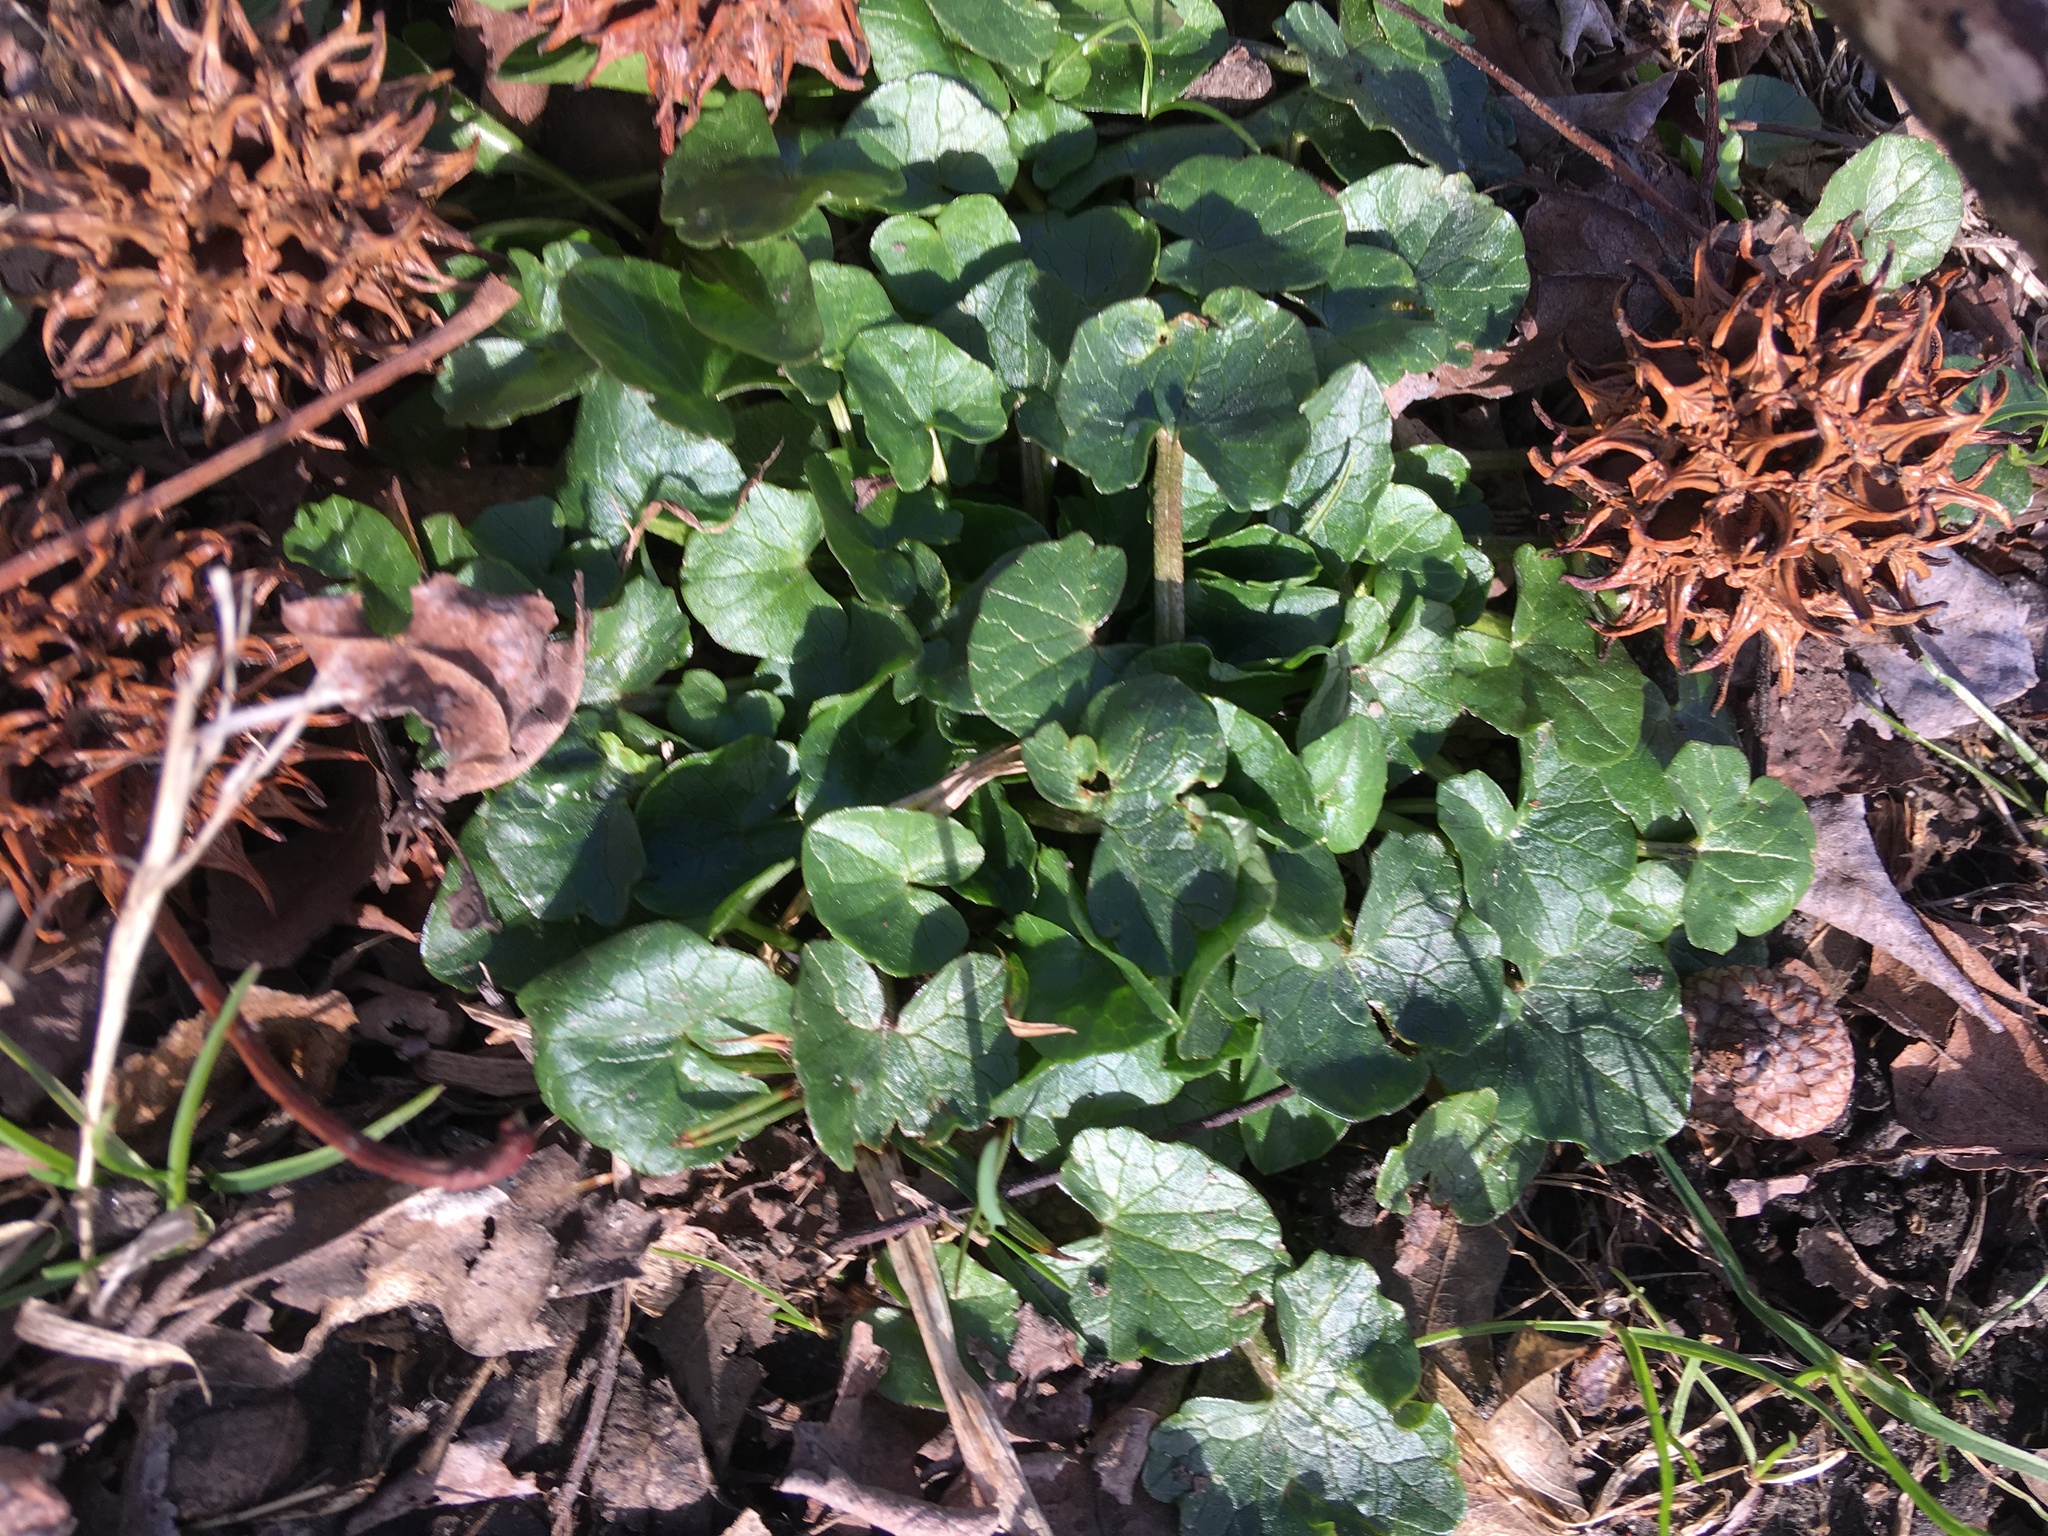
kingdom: Plantae
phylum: Tracheophyta
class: Magnoliopsida
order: Ranunculales
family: Ranunculaceae
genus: Ficaria
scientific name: Ficaria verna
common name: Lesser celandine
